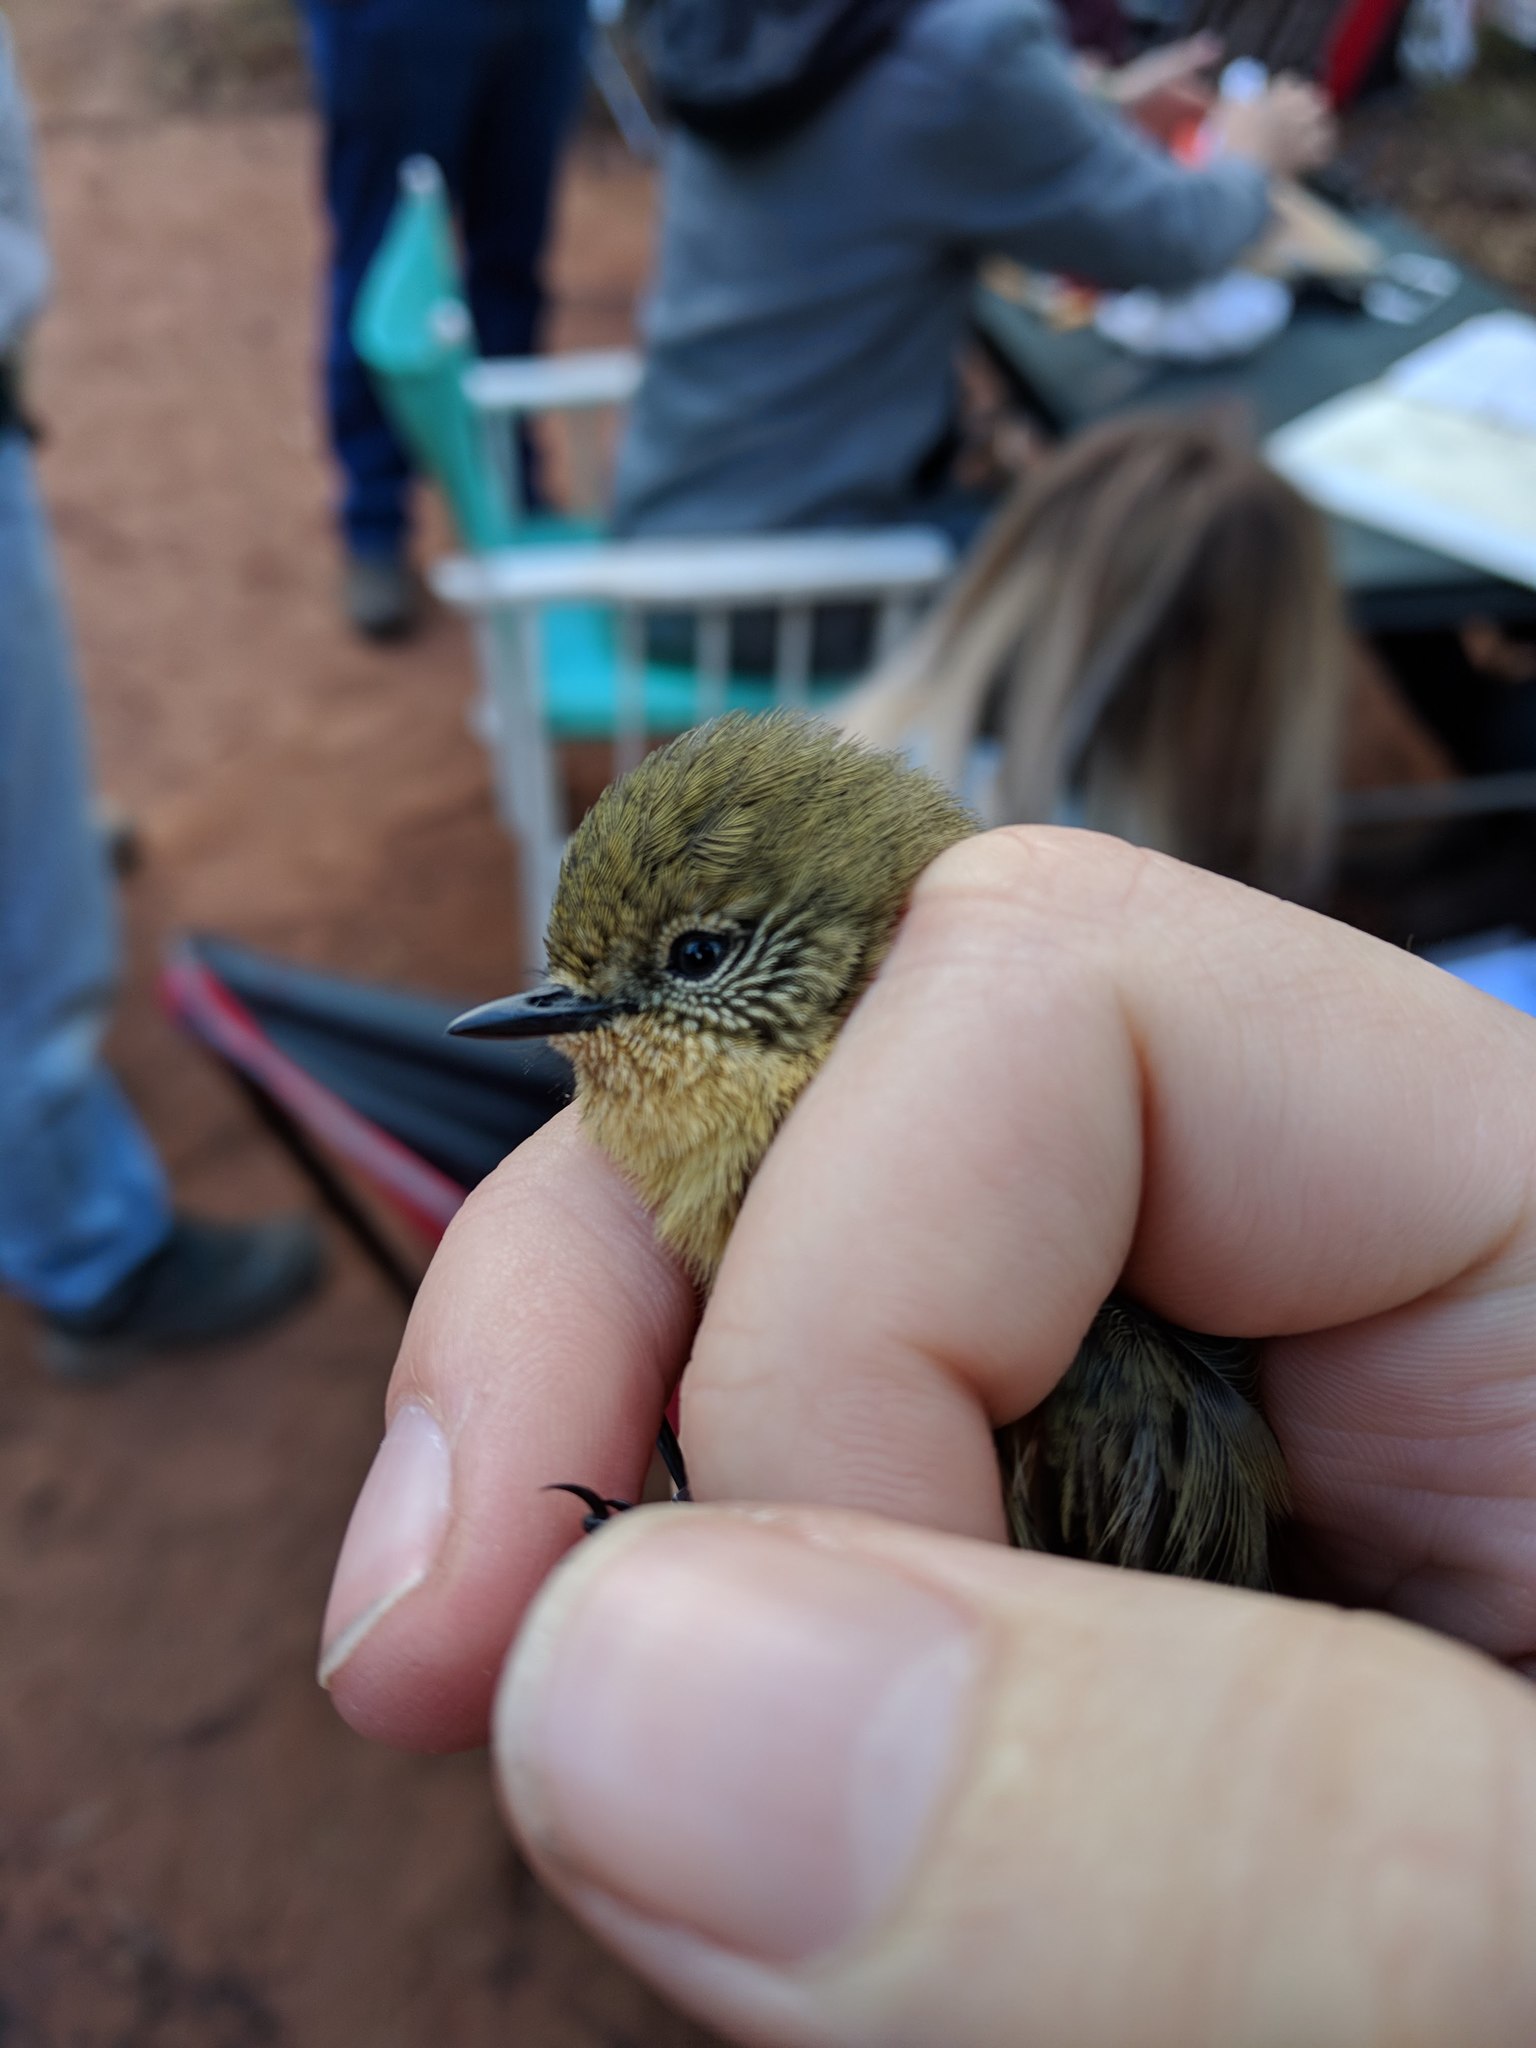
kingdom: Animalia
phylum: Chordata
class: Aves
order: Passeriformes
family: Acanthizidae
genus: Acanthiza
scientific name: Acanthiza nana
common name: Yellow thornbill
